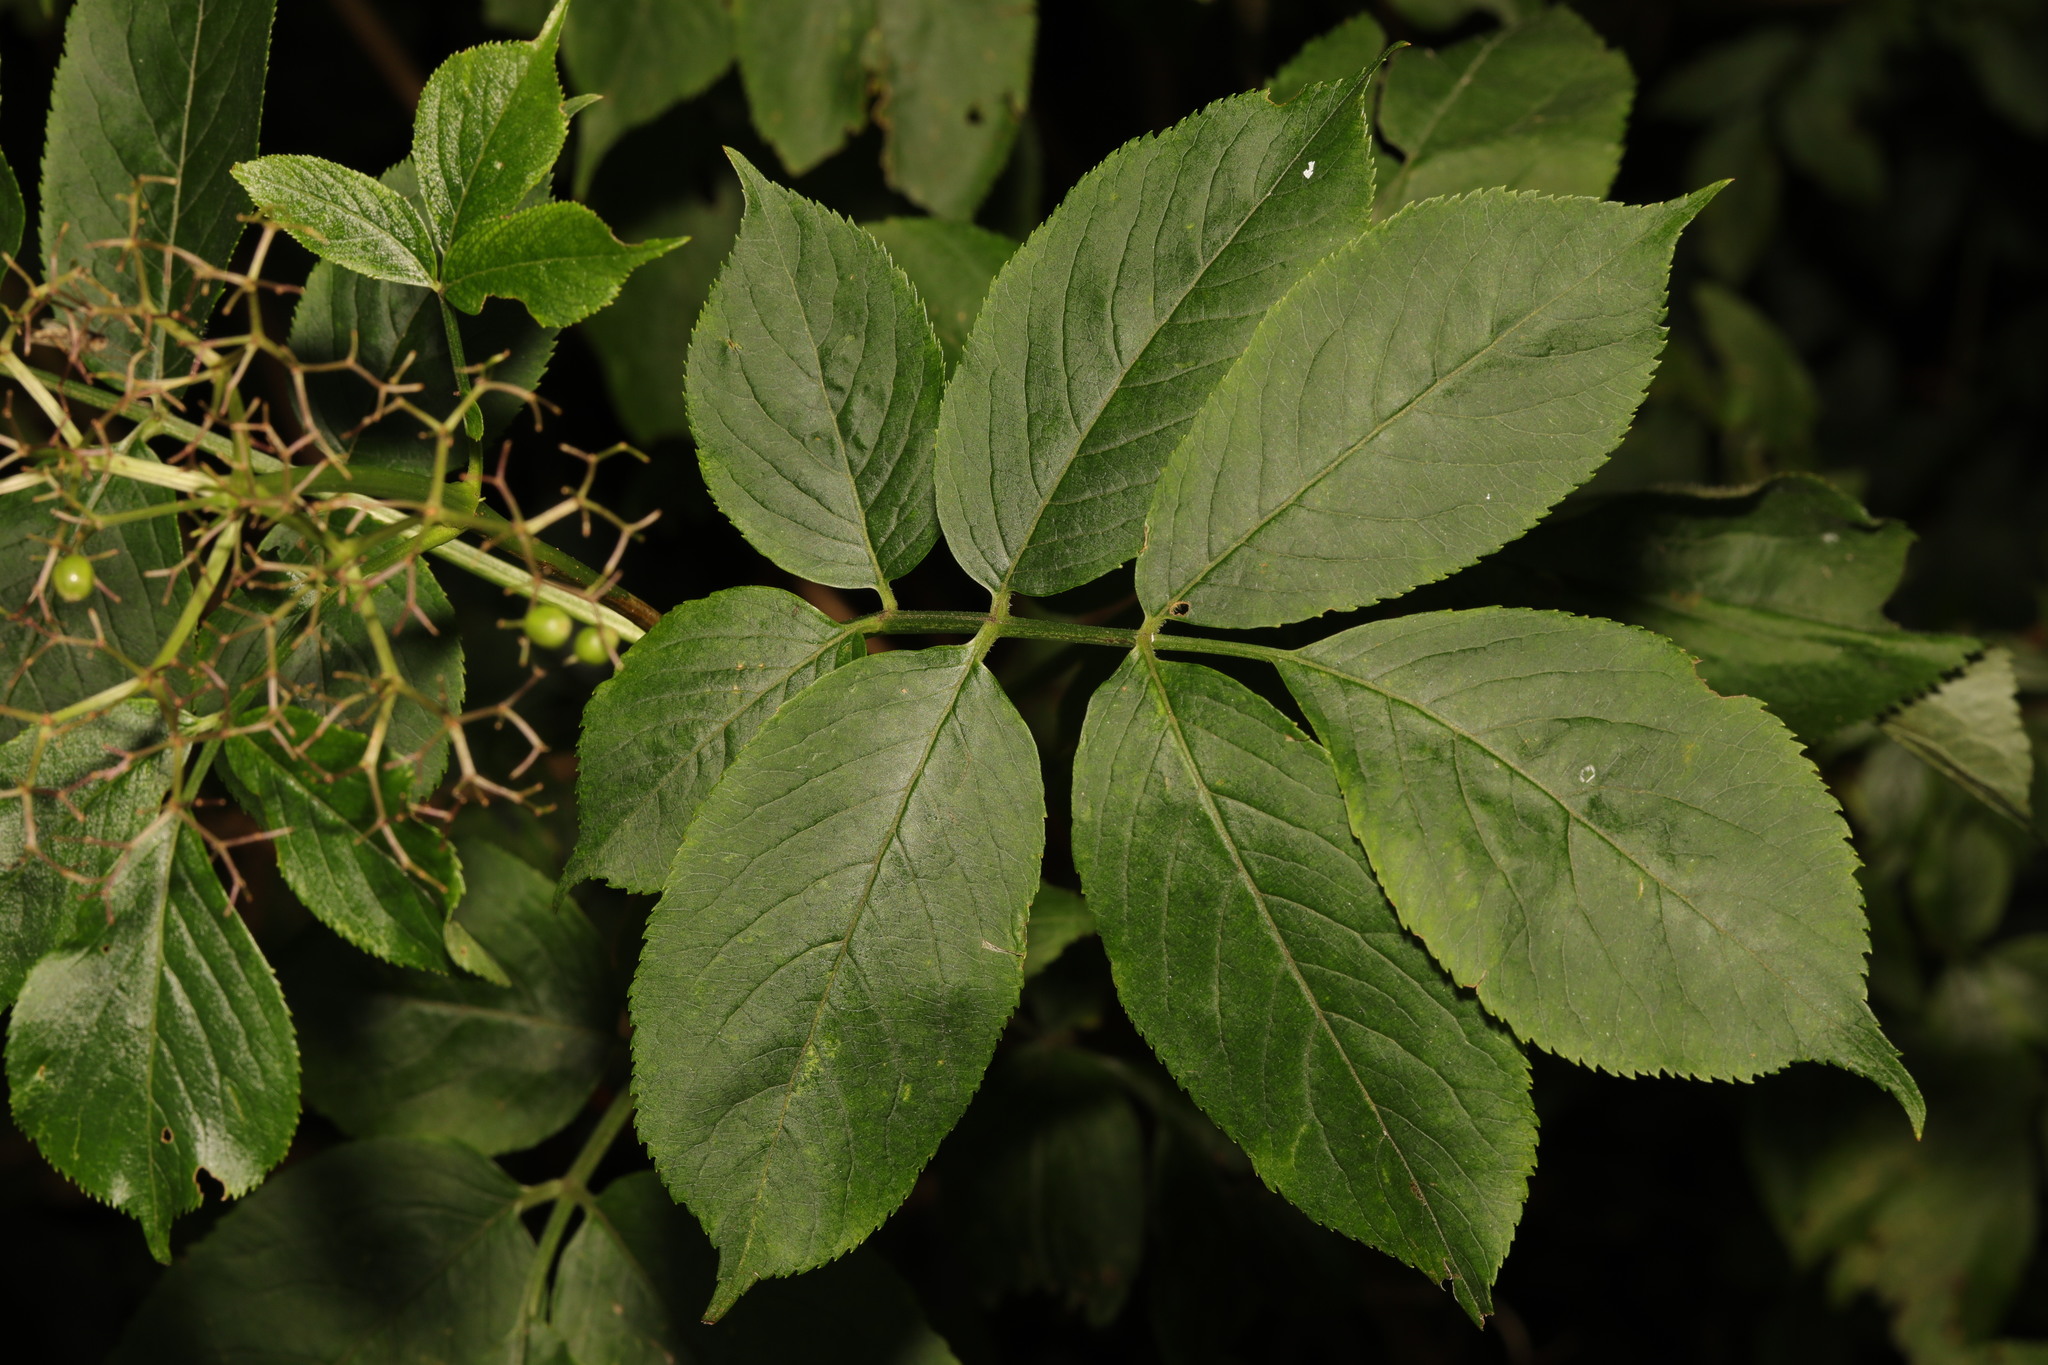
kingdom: Plantae
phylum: Tracheophyta
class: Magnoliopsida
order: Dipsacales
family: Viburnaceae
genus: Sambucus
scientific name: Sambucus nigra
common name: Elder
